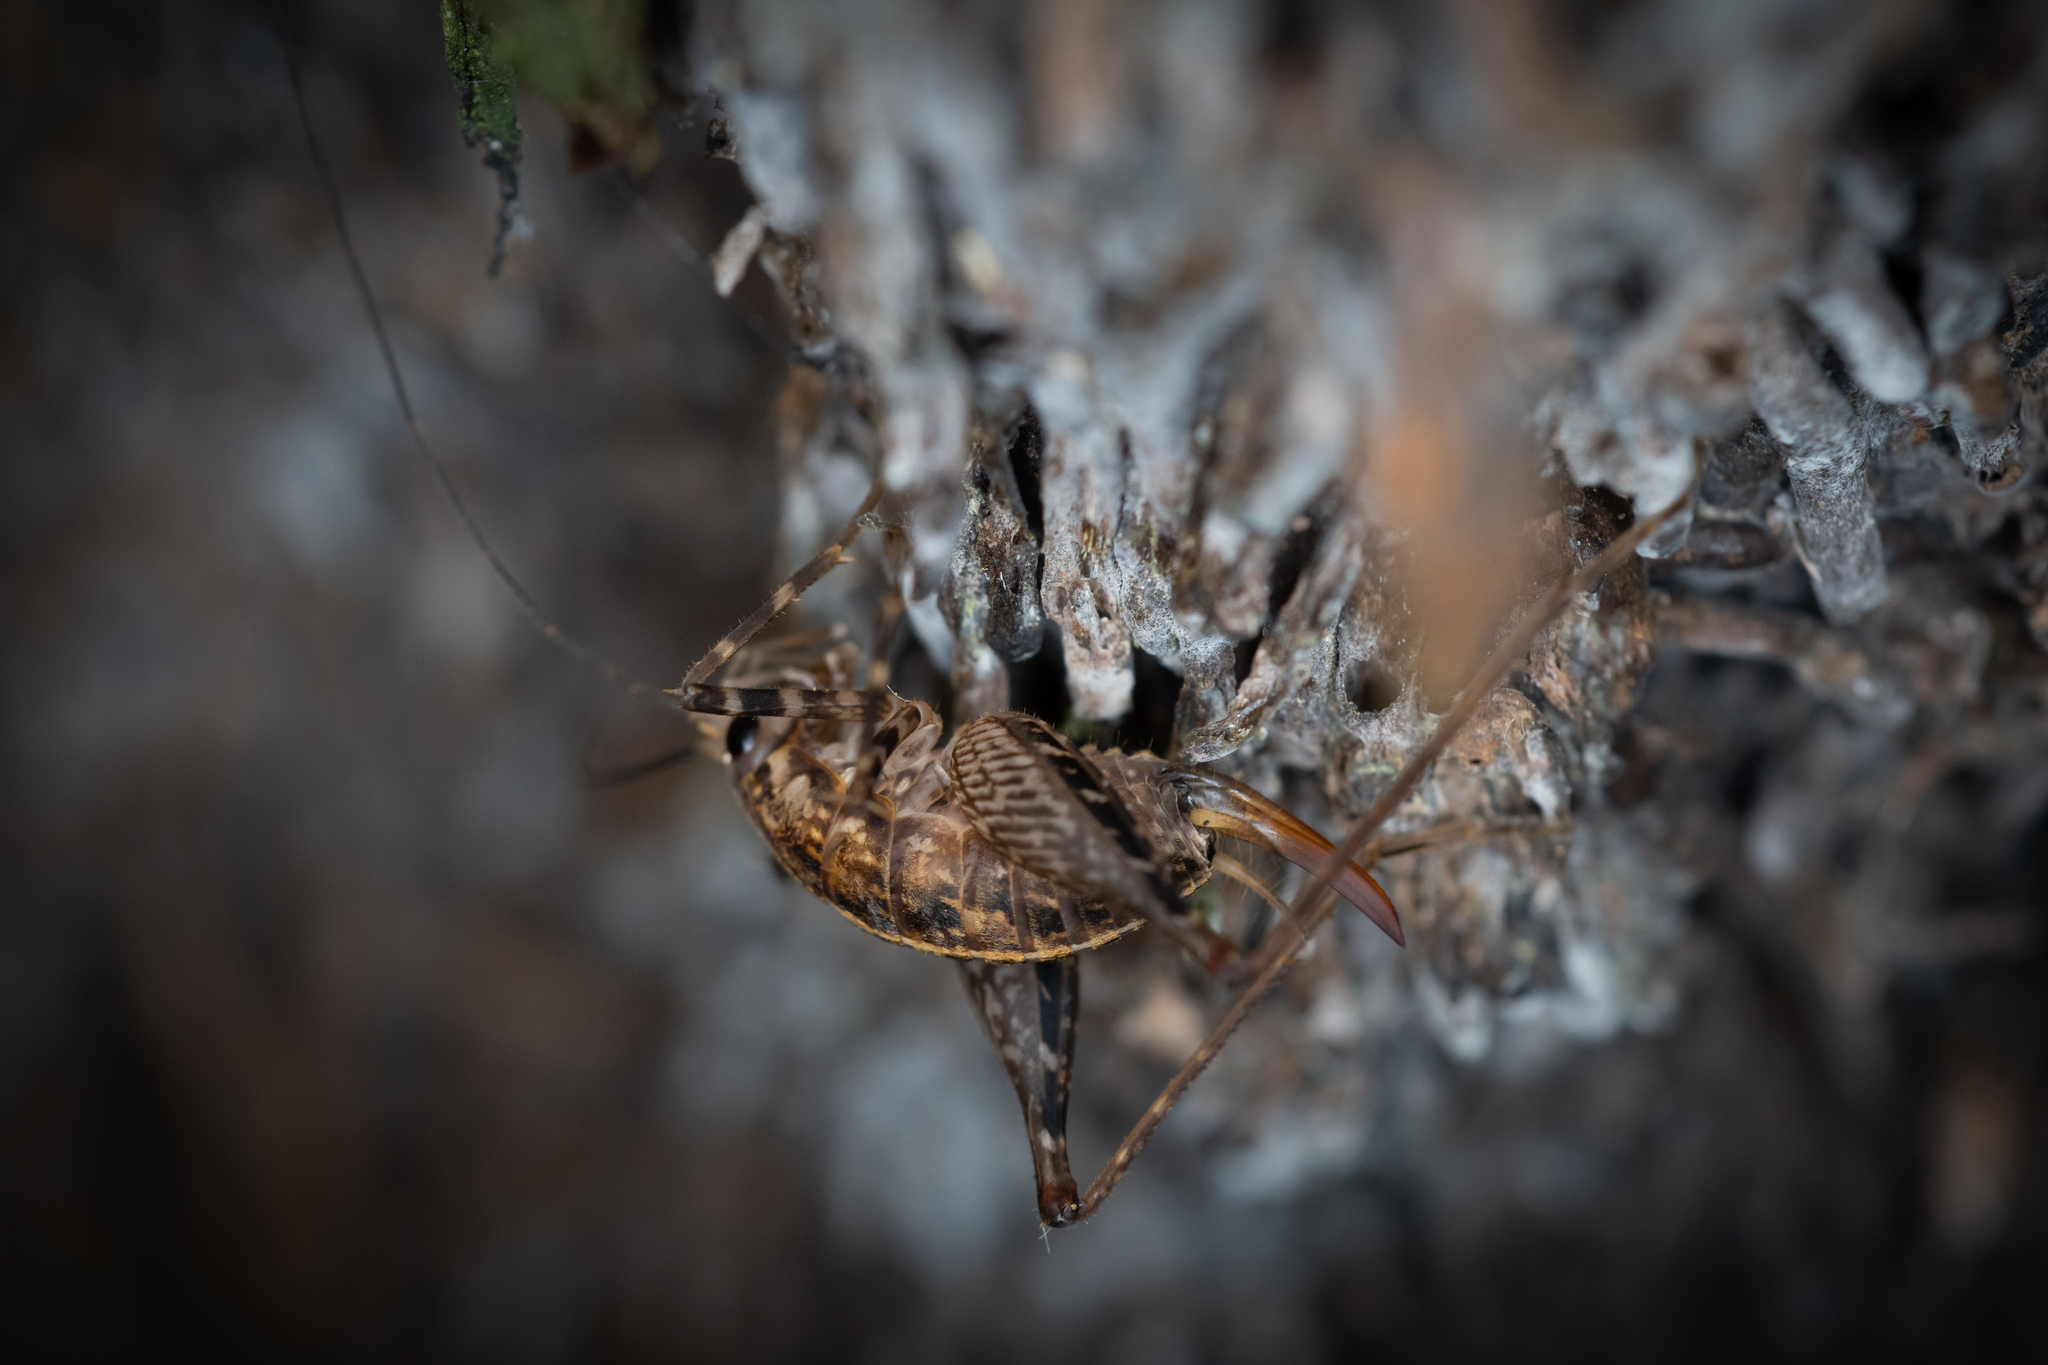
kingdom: Animalia
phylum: Arthropoda
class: Insecta
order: Orthoptera
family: Rhaphidophoridae
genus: Pleioplectron
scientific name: Pleioplectron hudsoni
